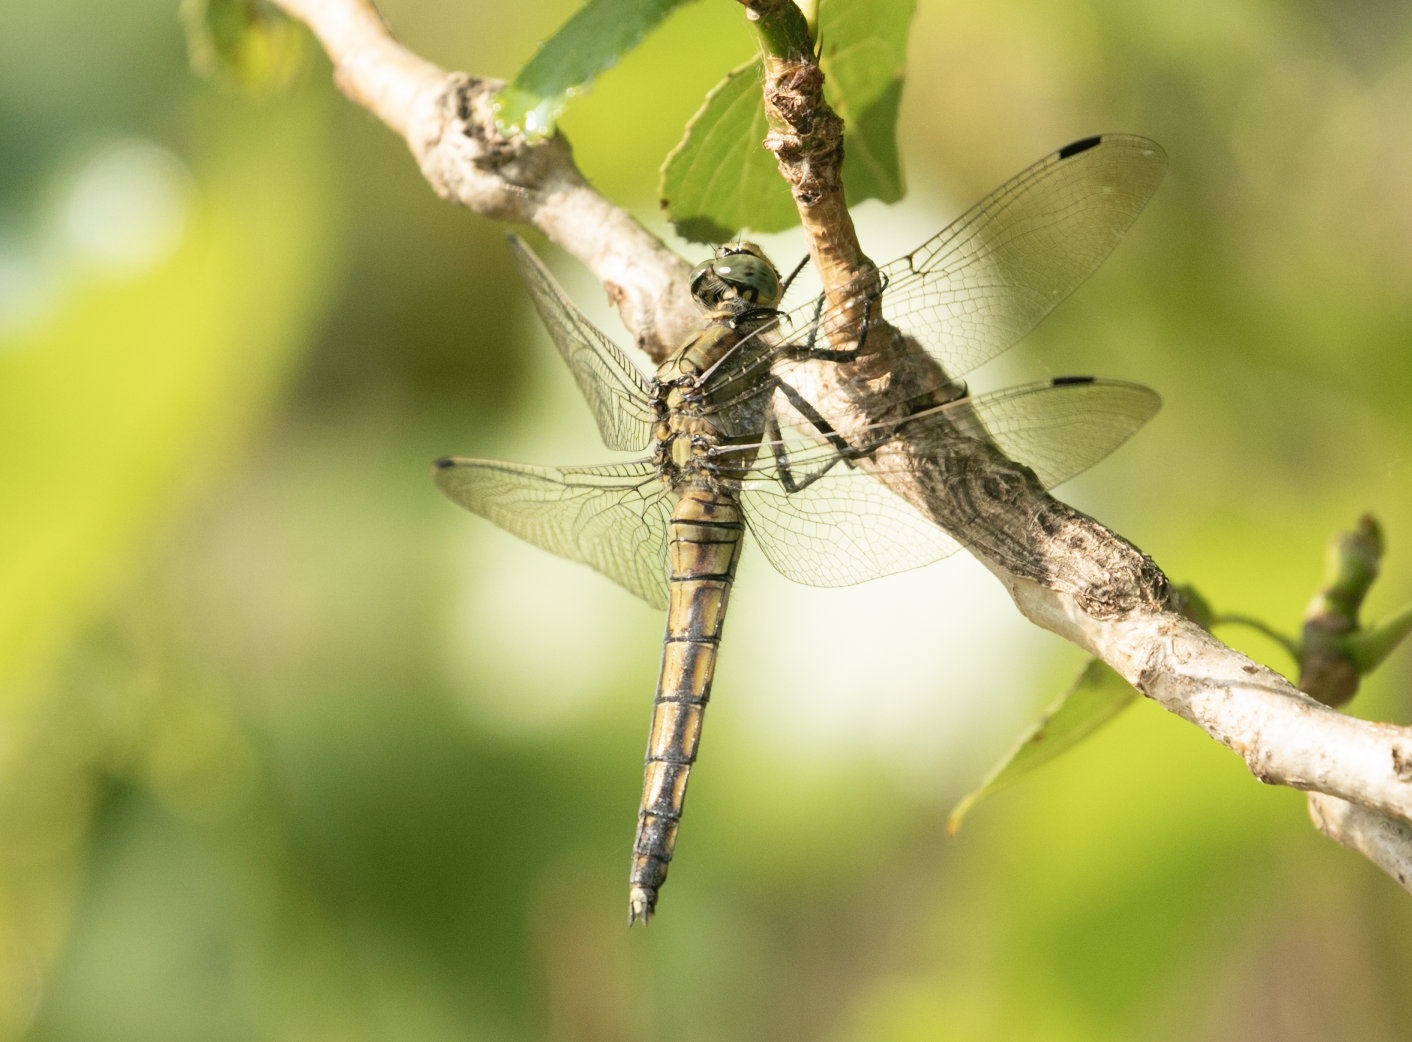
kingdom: Animalia
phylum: Arthropoda
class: Insecta
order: Odonata
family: Libellulidae
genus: Orthetrum
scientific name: Orthetrum cancellatum
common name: Black-tailed skimmer
